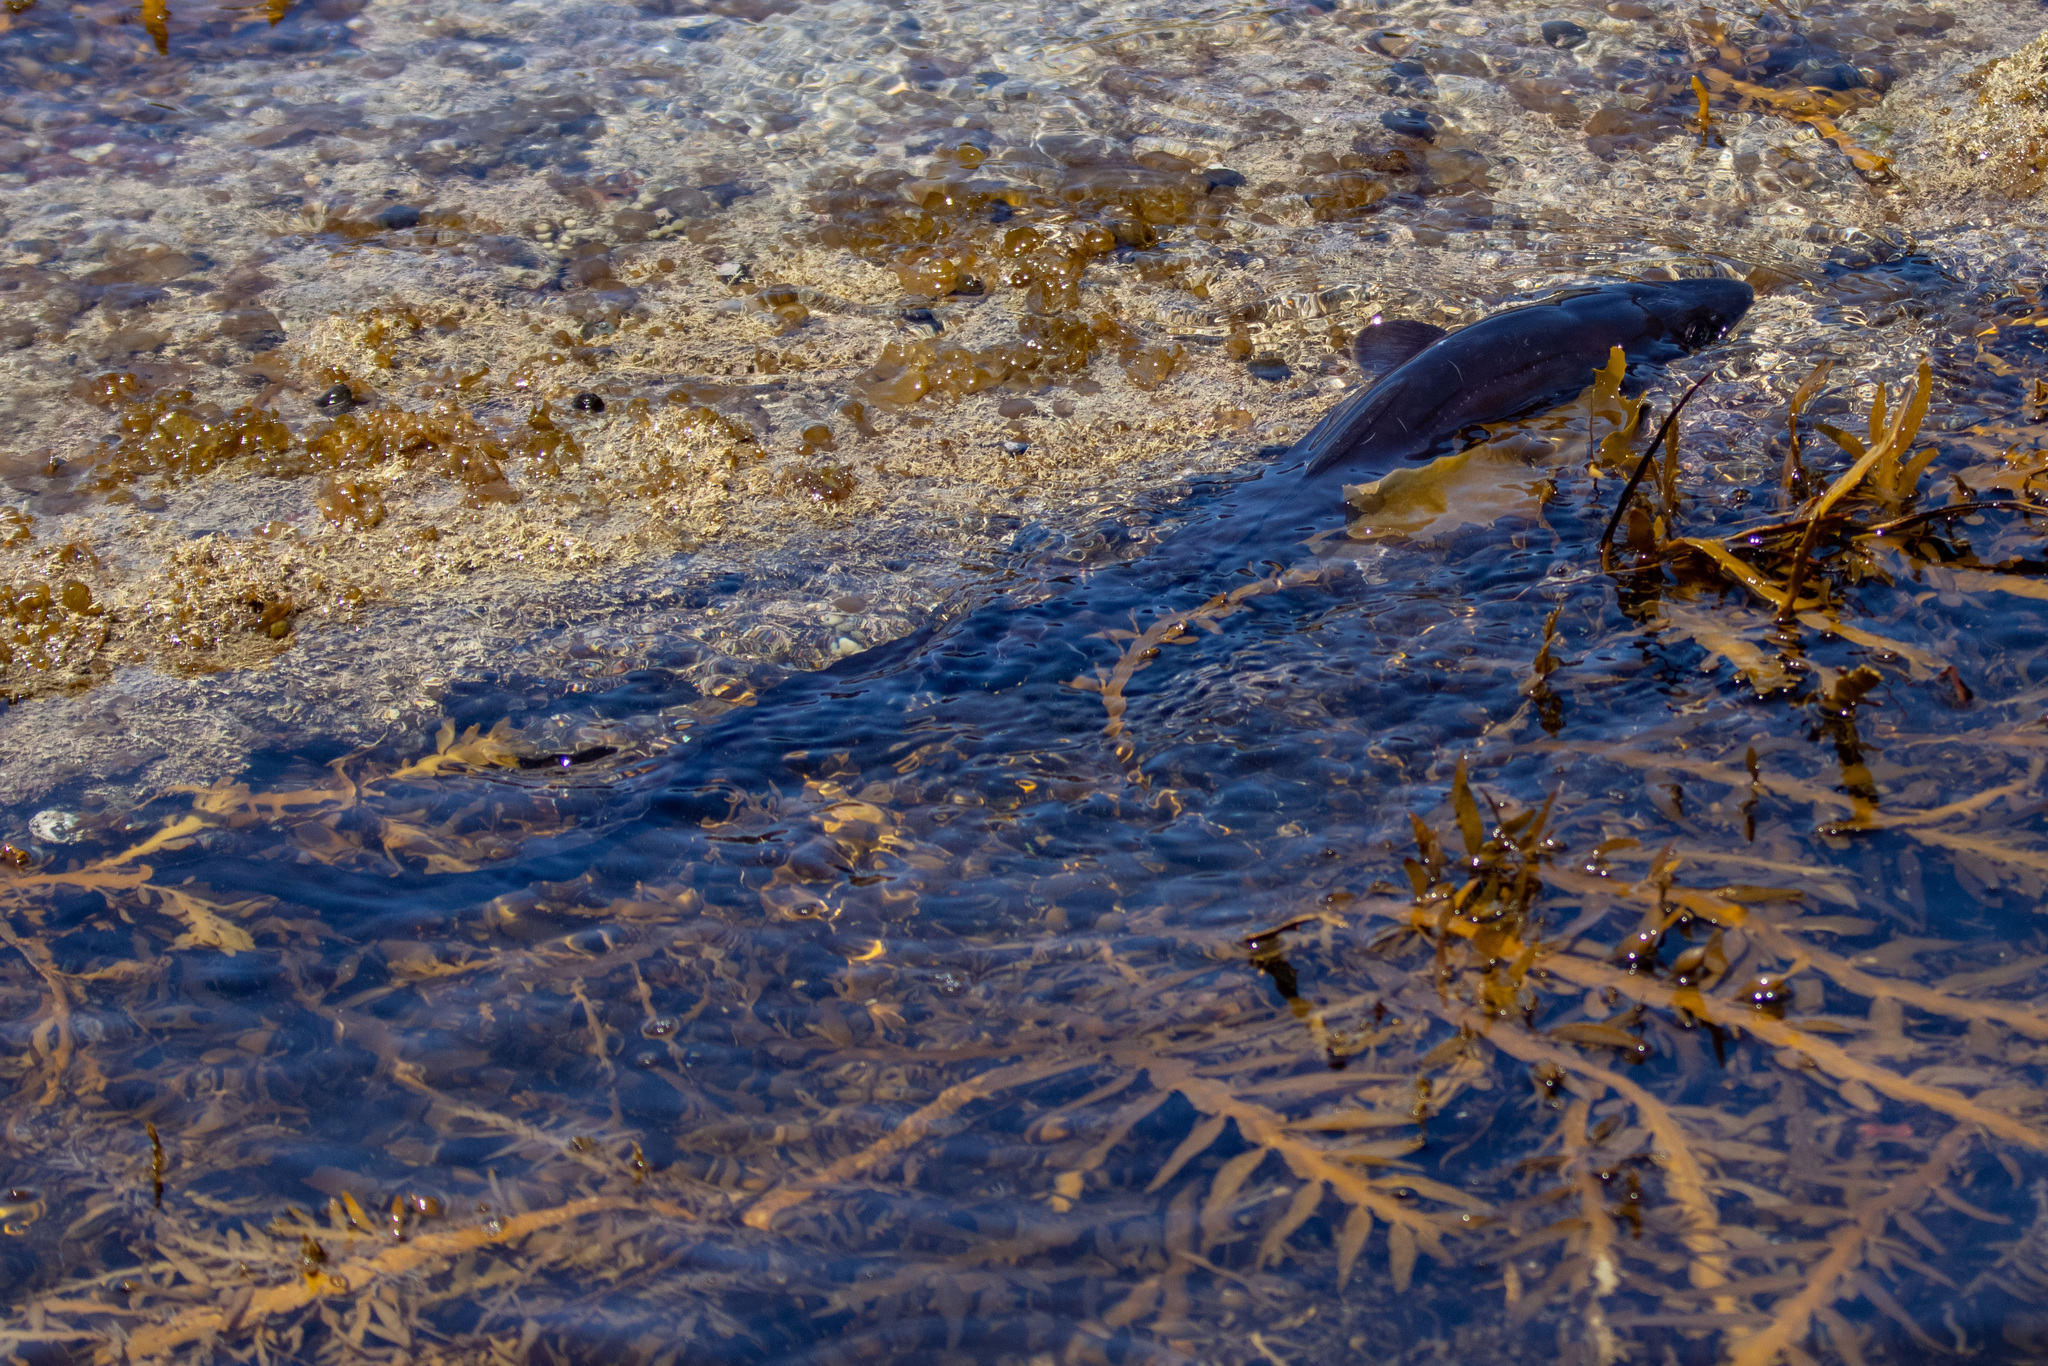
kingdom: Animalia
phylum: Chordata
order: Anguilliformes
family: Congridae
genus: Conger
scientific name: Conger verreauxi
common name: Conger eel
